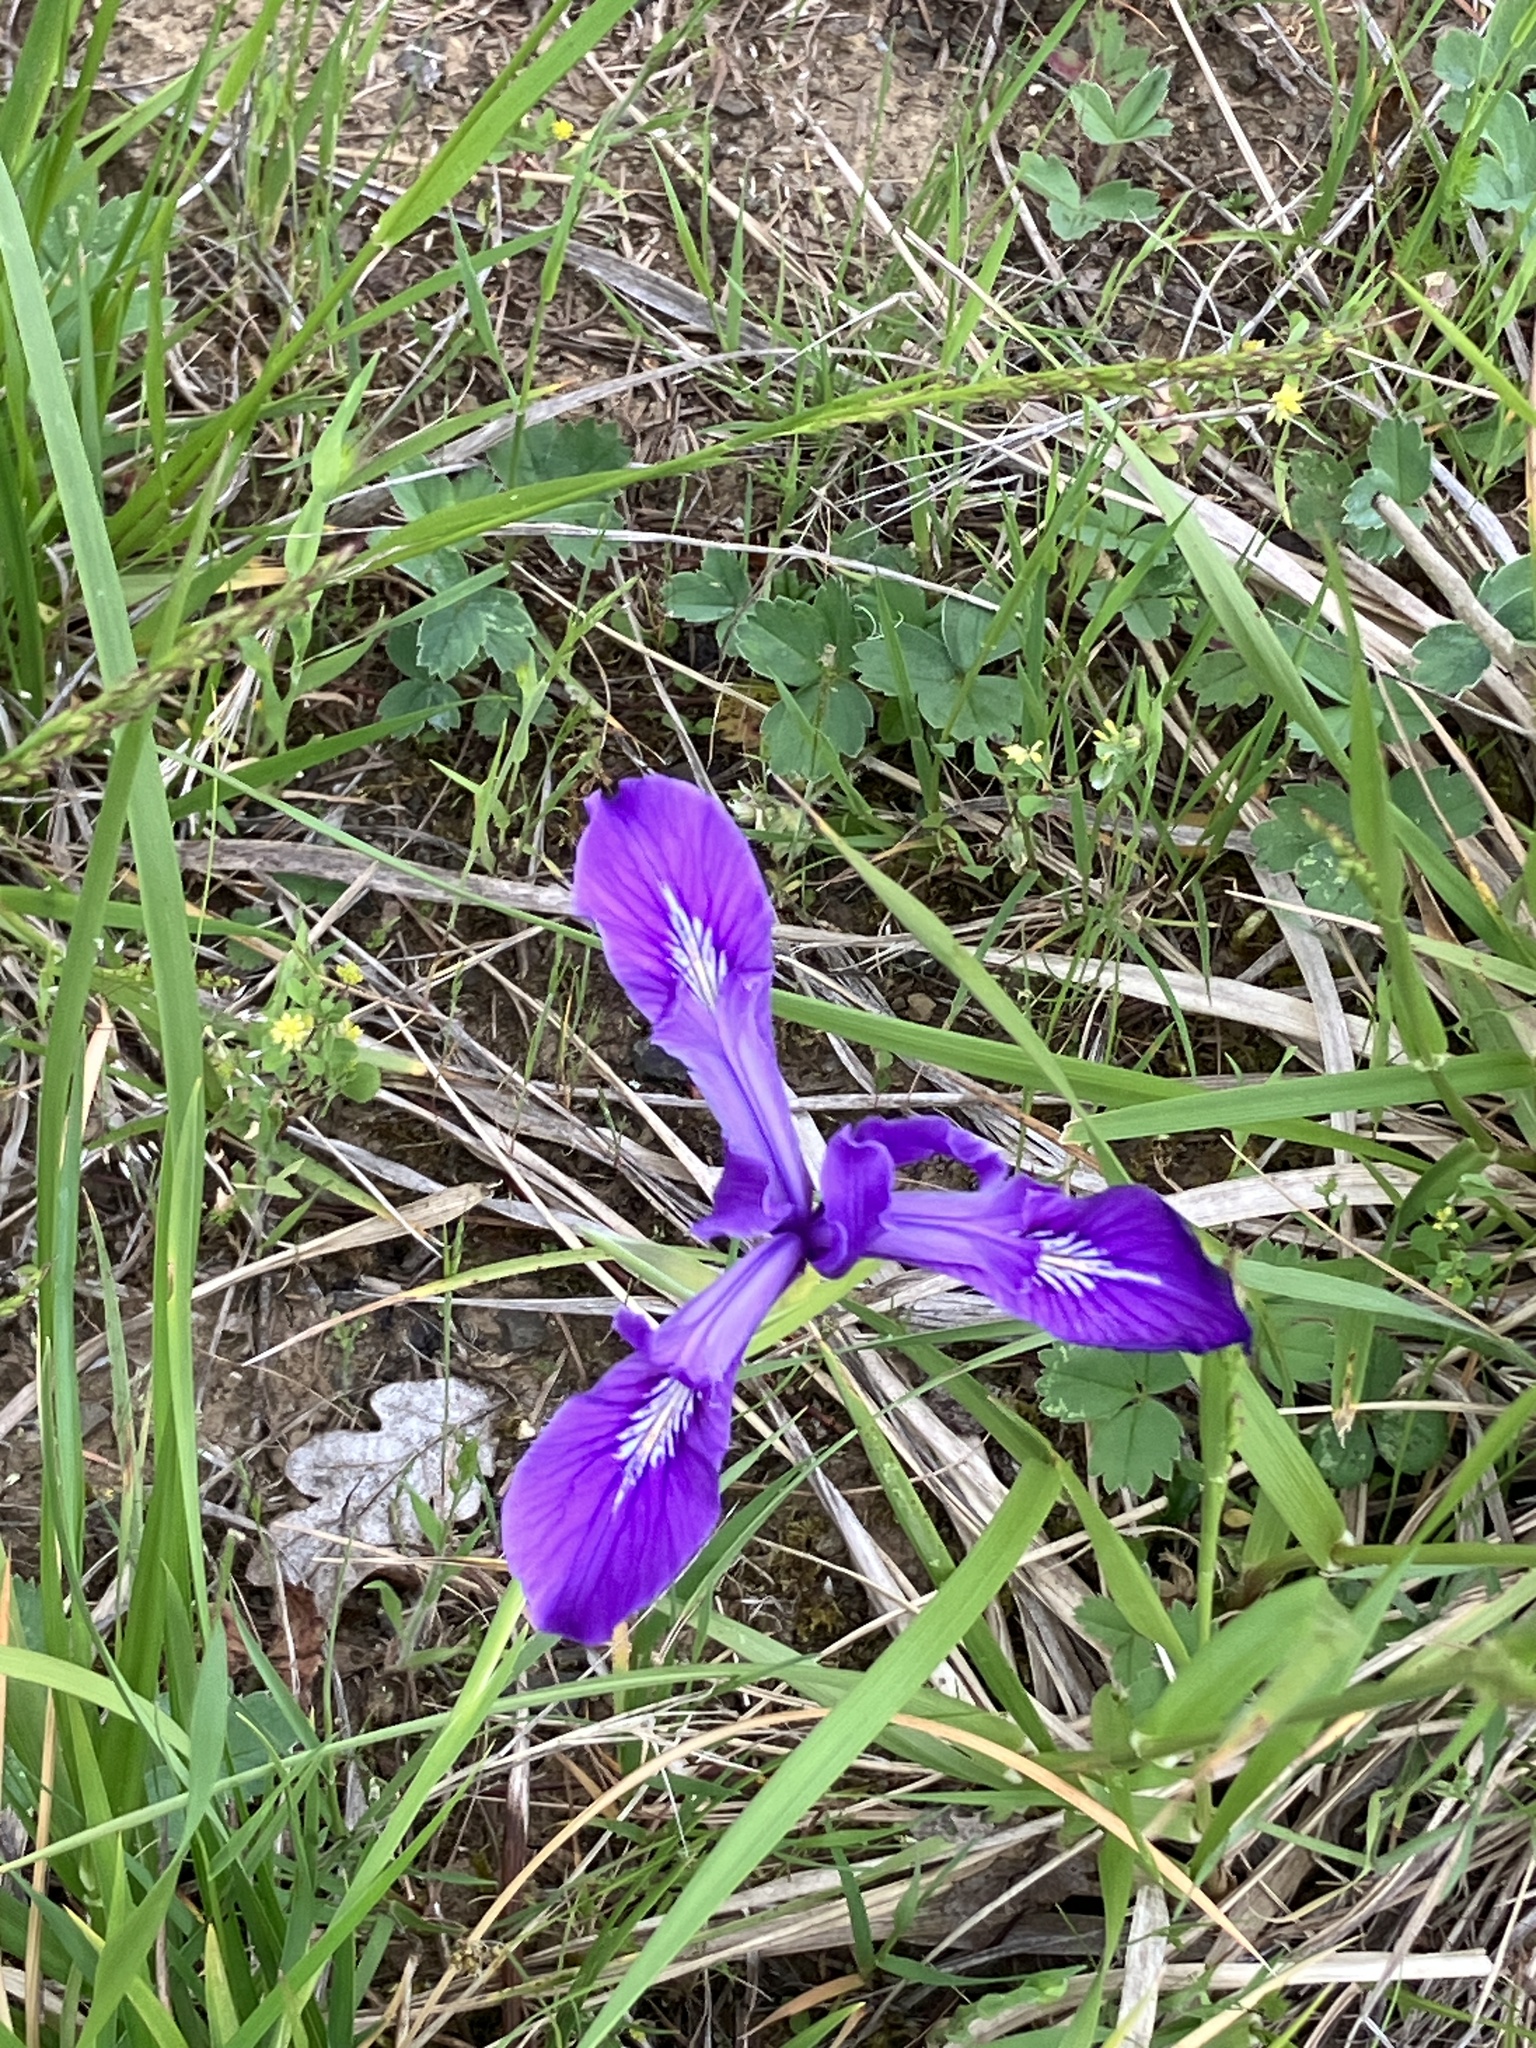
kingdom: Plantae
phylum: Tracheophyta
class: Liliopsida
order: Asparagales
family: Iridaceae
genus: Iris
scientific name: Iris tenax
